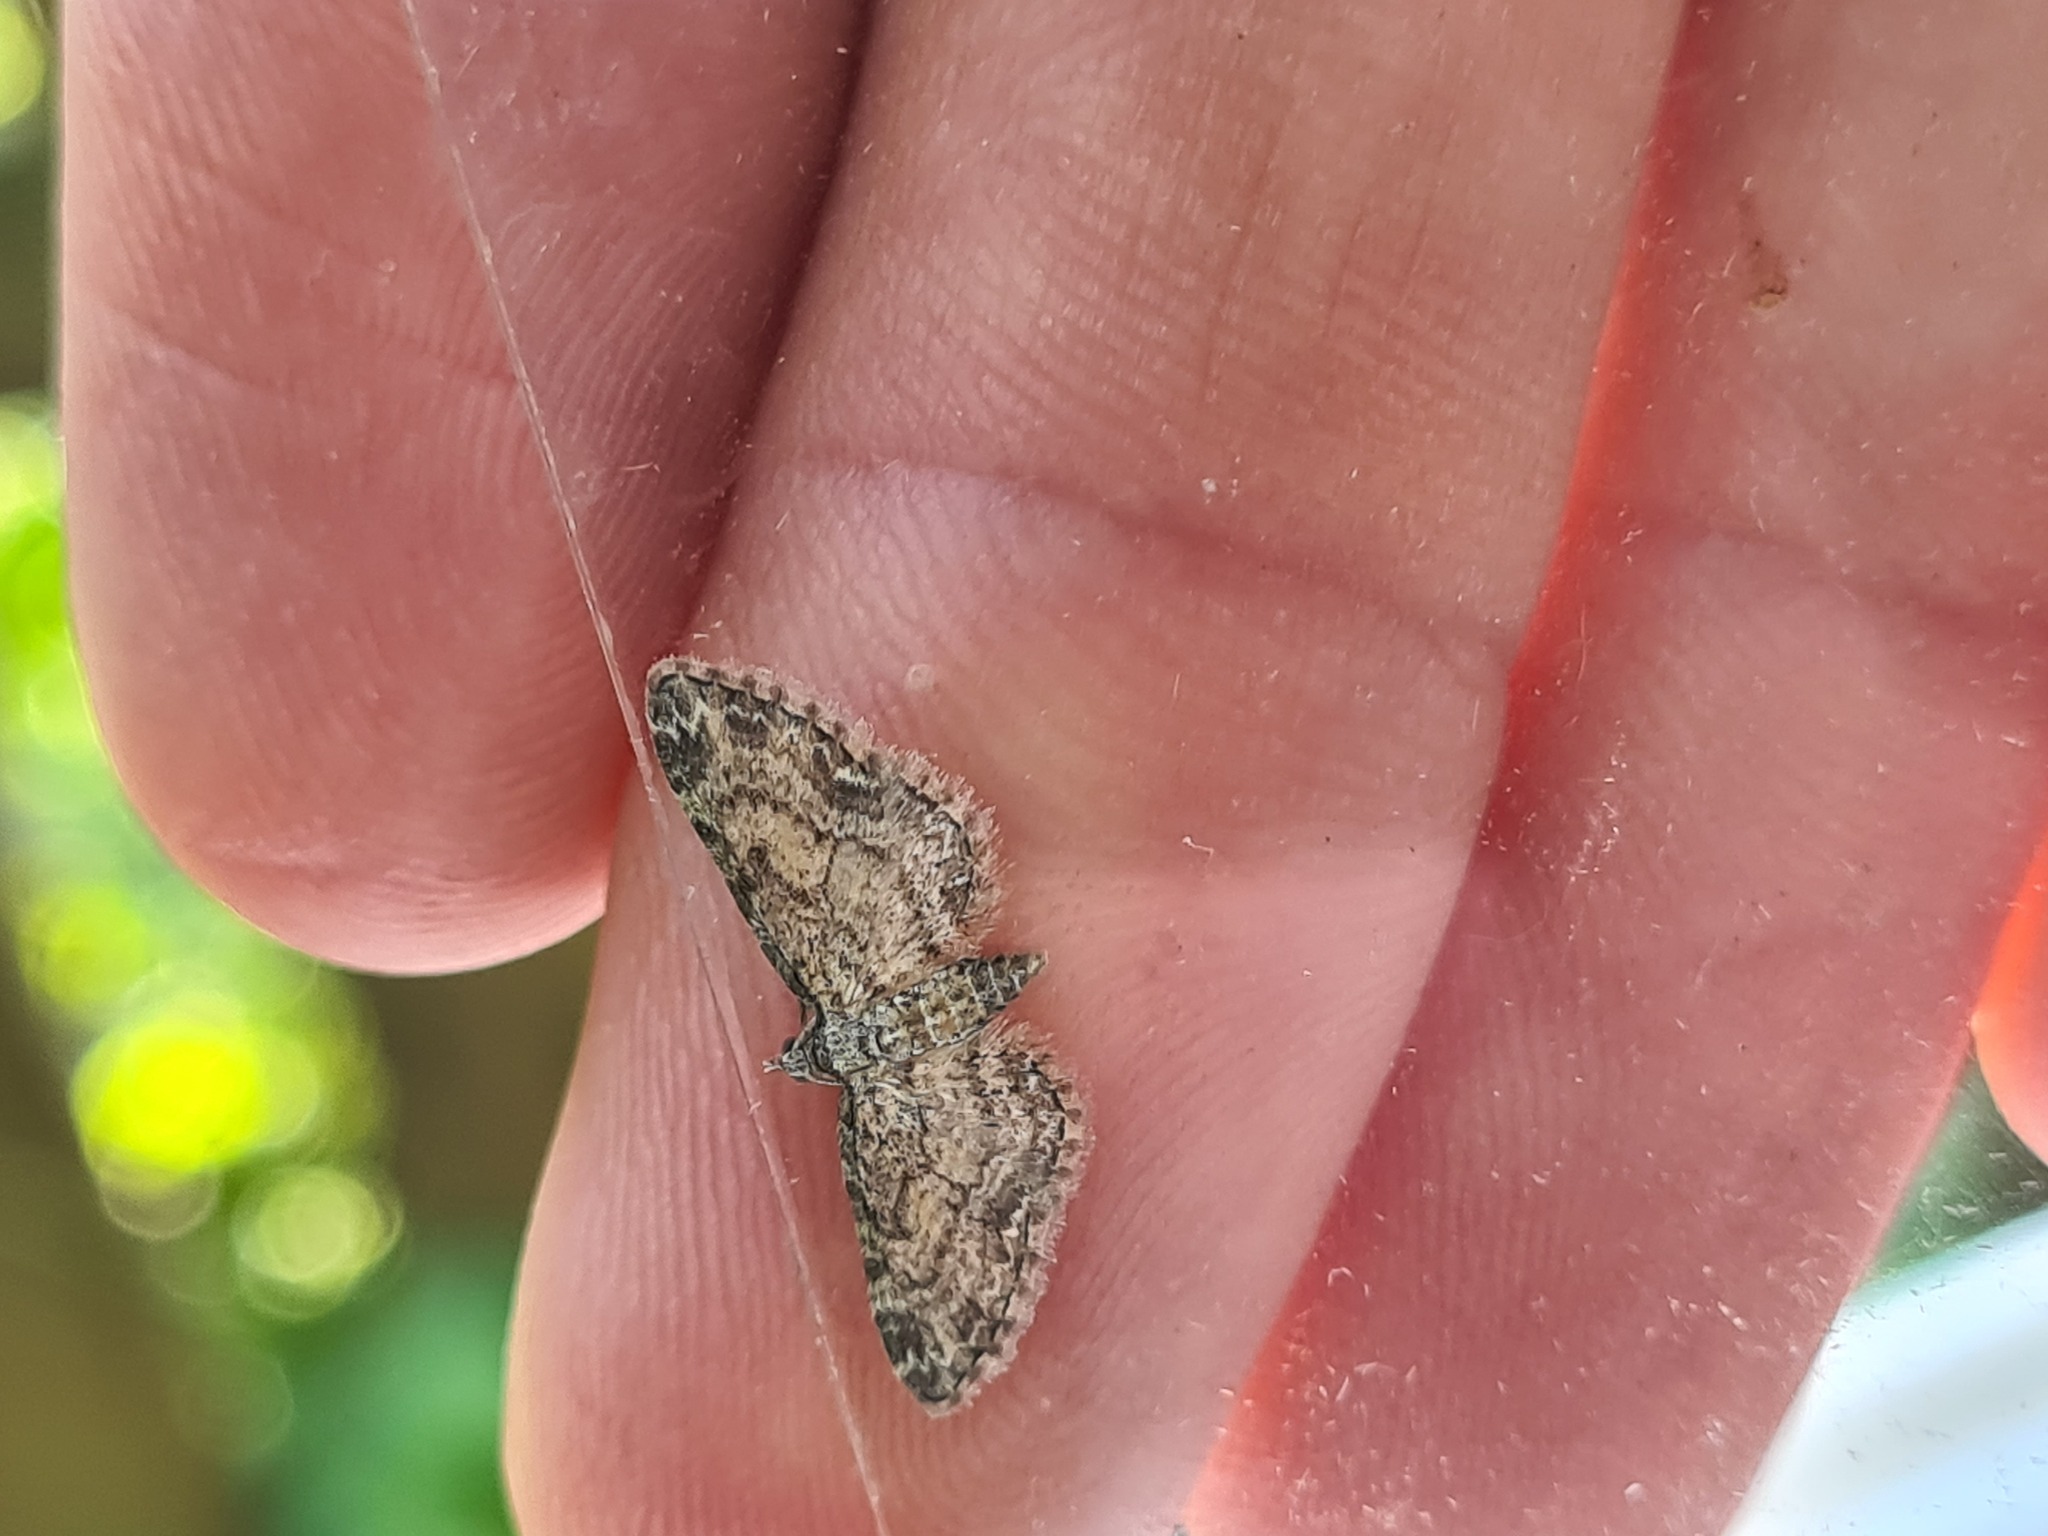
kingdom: Animalia
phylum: Arthropoda
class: Insecta
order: Lepidoptera
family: Geometridae
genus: Eupithecia
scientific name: Eupithecia inturbata
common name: Maple pug
